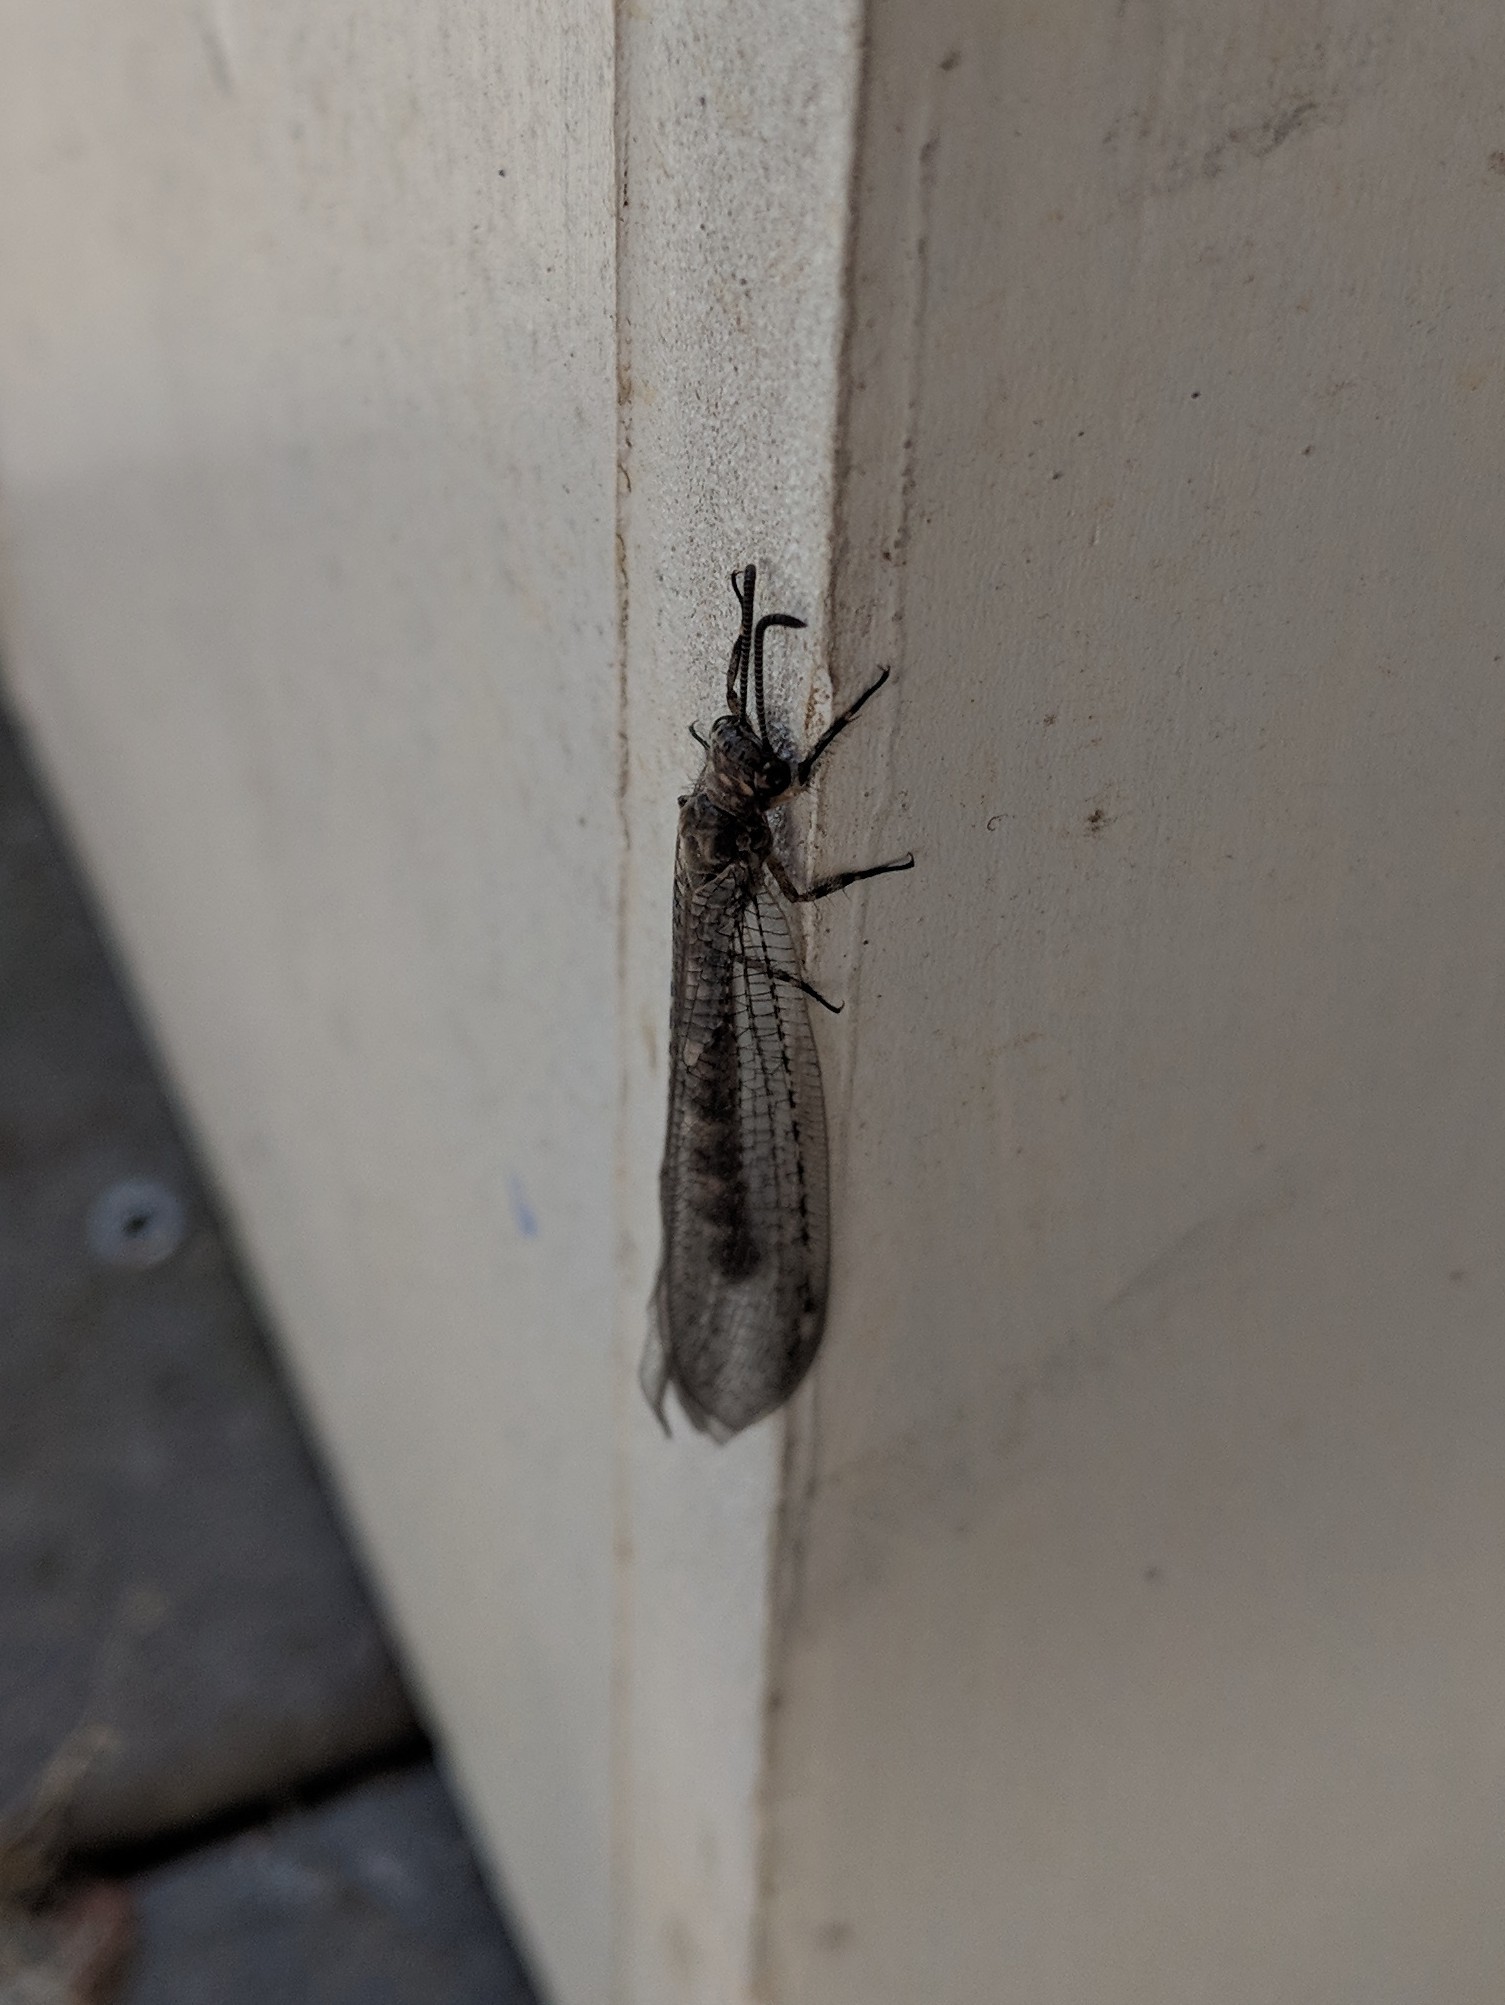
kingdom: Animalia
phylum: Arthropoda
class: Insecta
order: Neuroptera
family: Myrmeleontidae
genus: Myrmeleon
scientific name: Myrmeleon immaculatus
